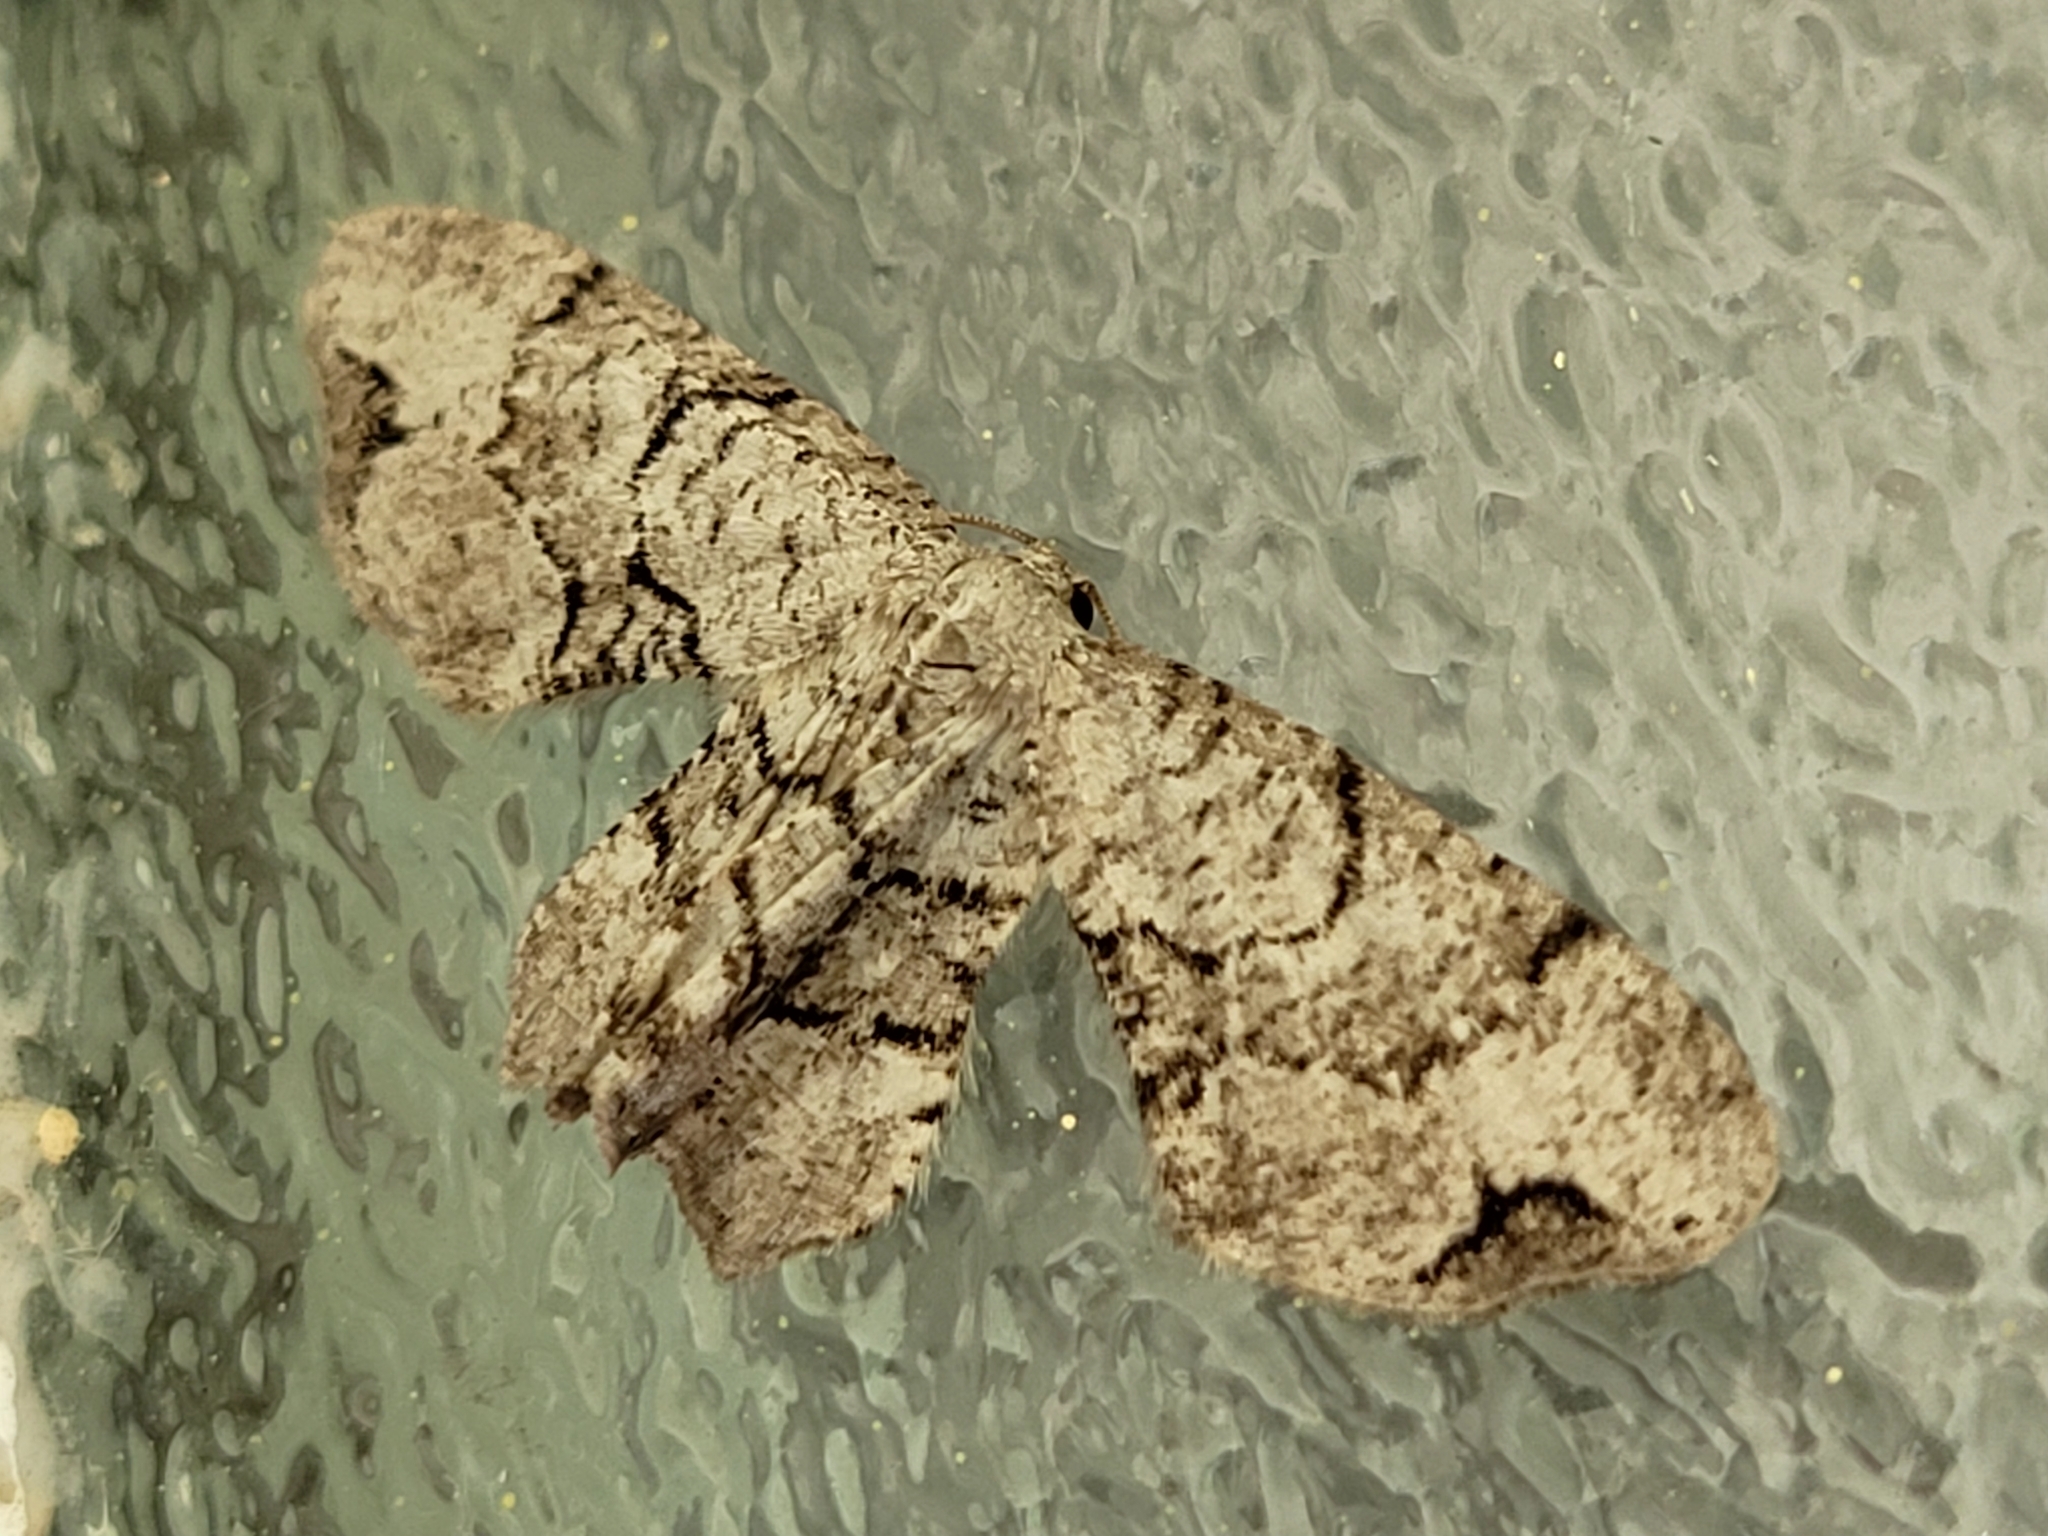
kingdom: Animalia
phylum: Arthropoda
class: Insecta
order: Lepidoptera
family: Uraniidae
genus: Epiplema
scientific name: Epiplema Callizzia amorata
